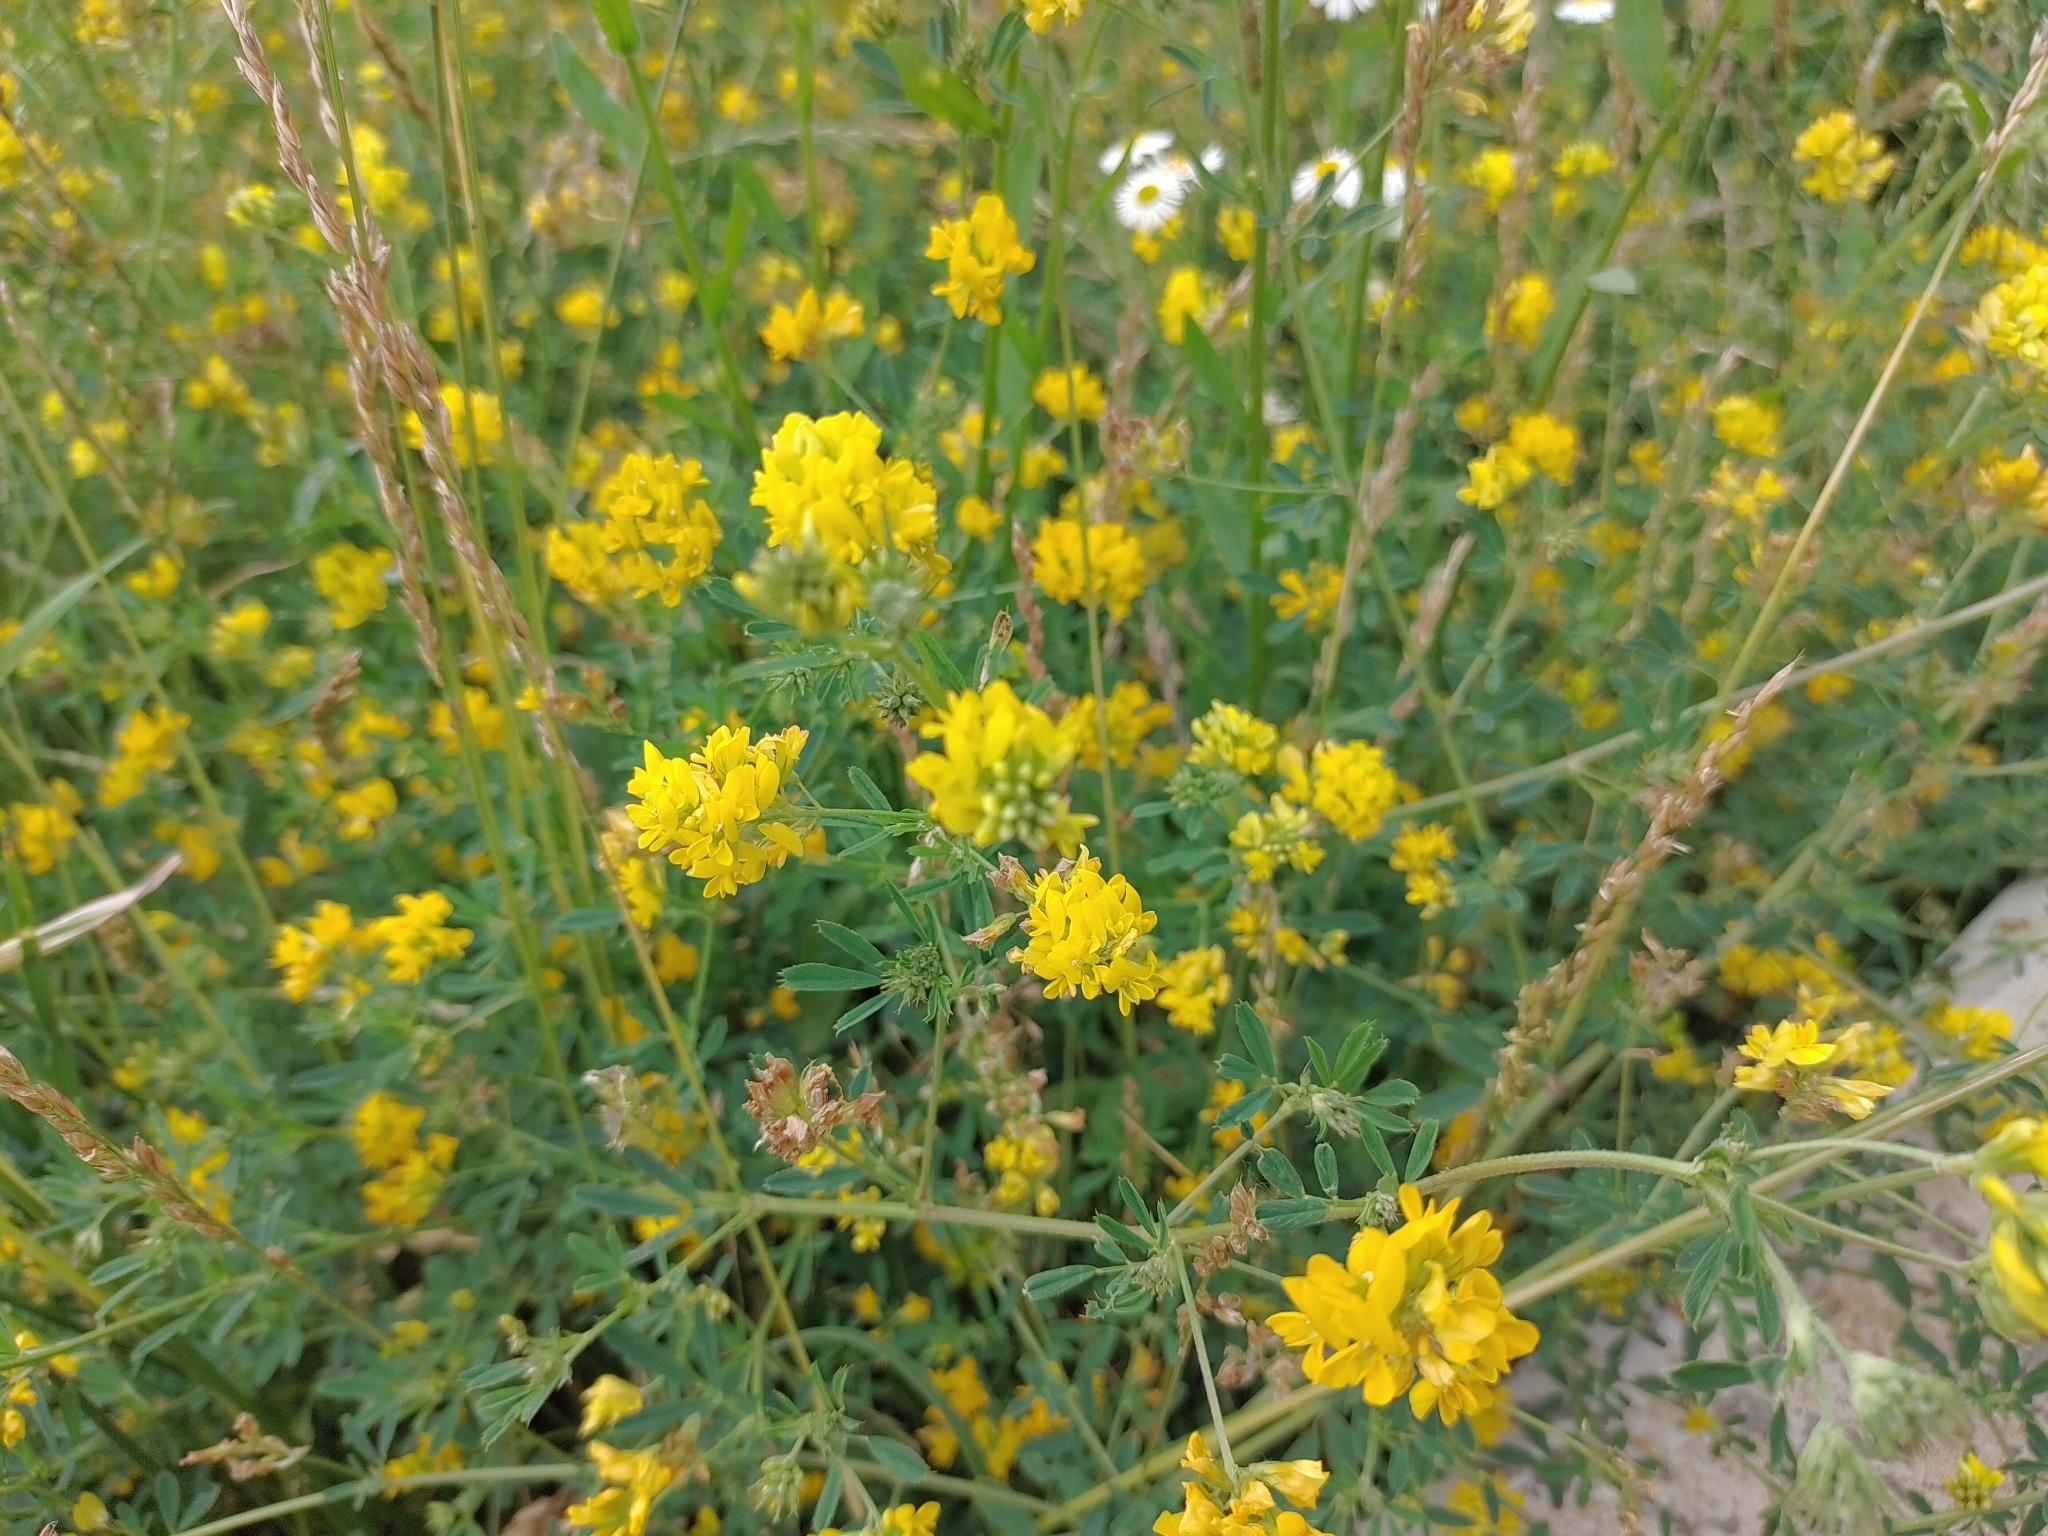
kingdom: Plantae
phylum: Tracheophyta
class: Magnoliopsida
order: Fabales
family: Fabaceae
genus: Medicago
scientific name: Medicago falcata
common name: Sickle medick
